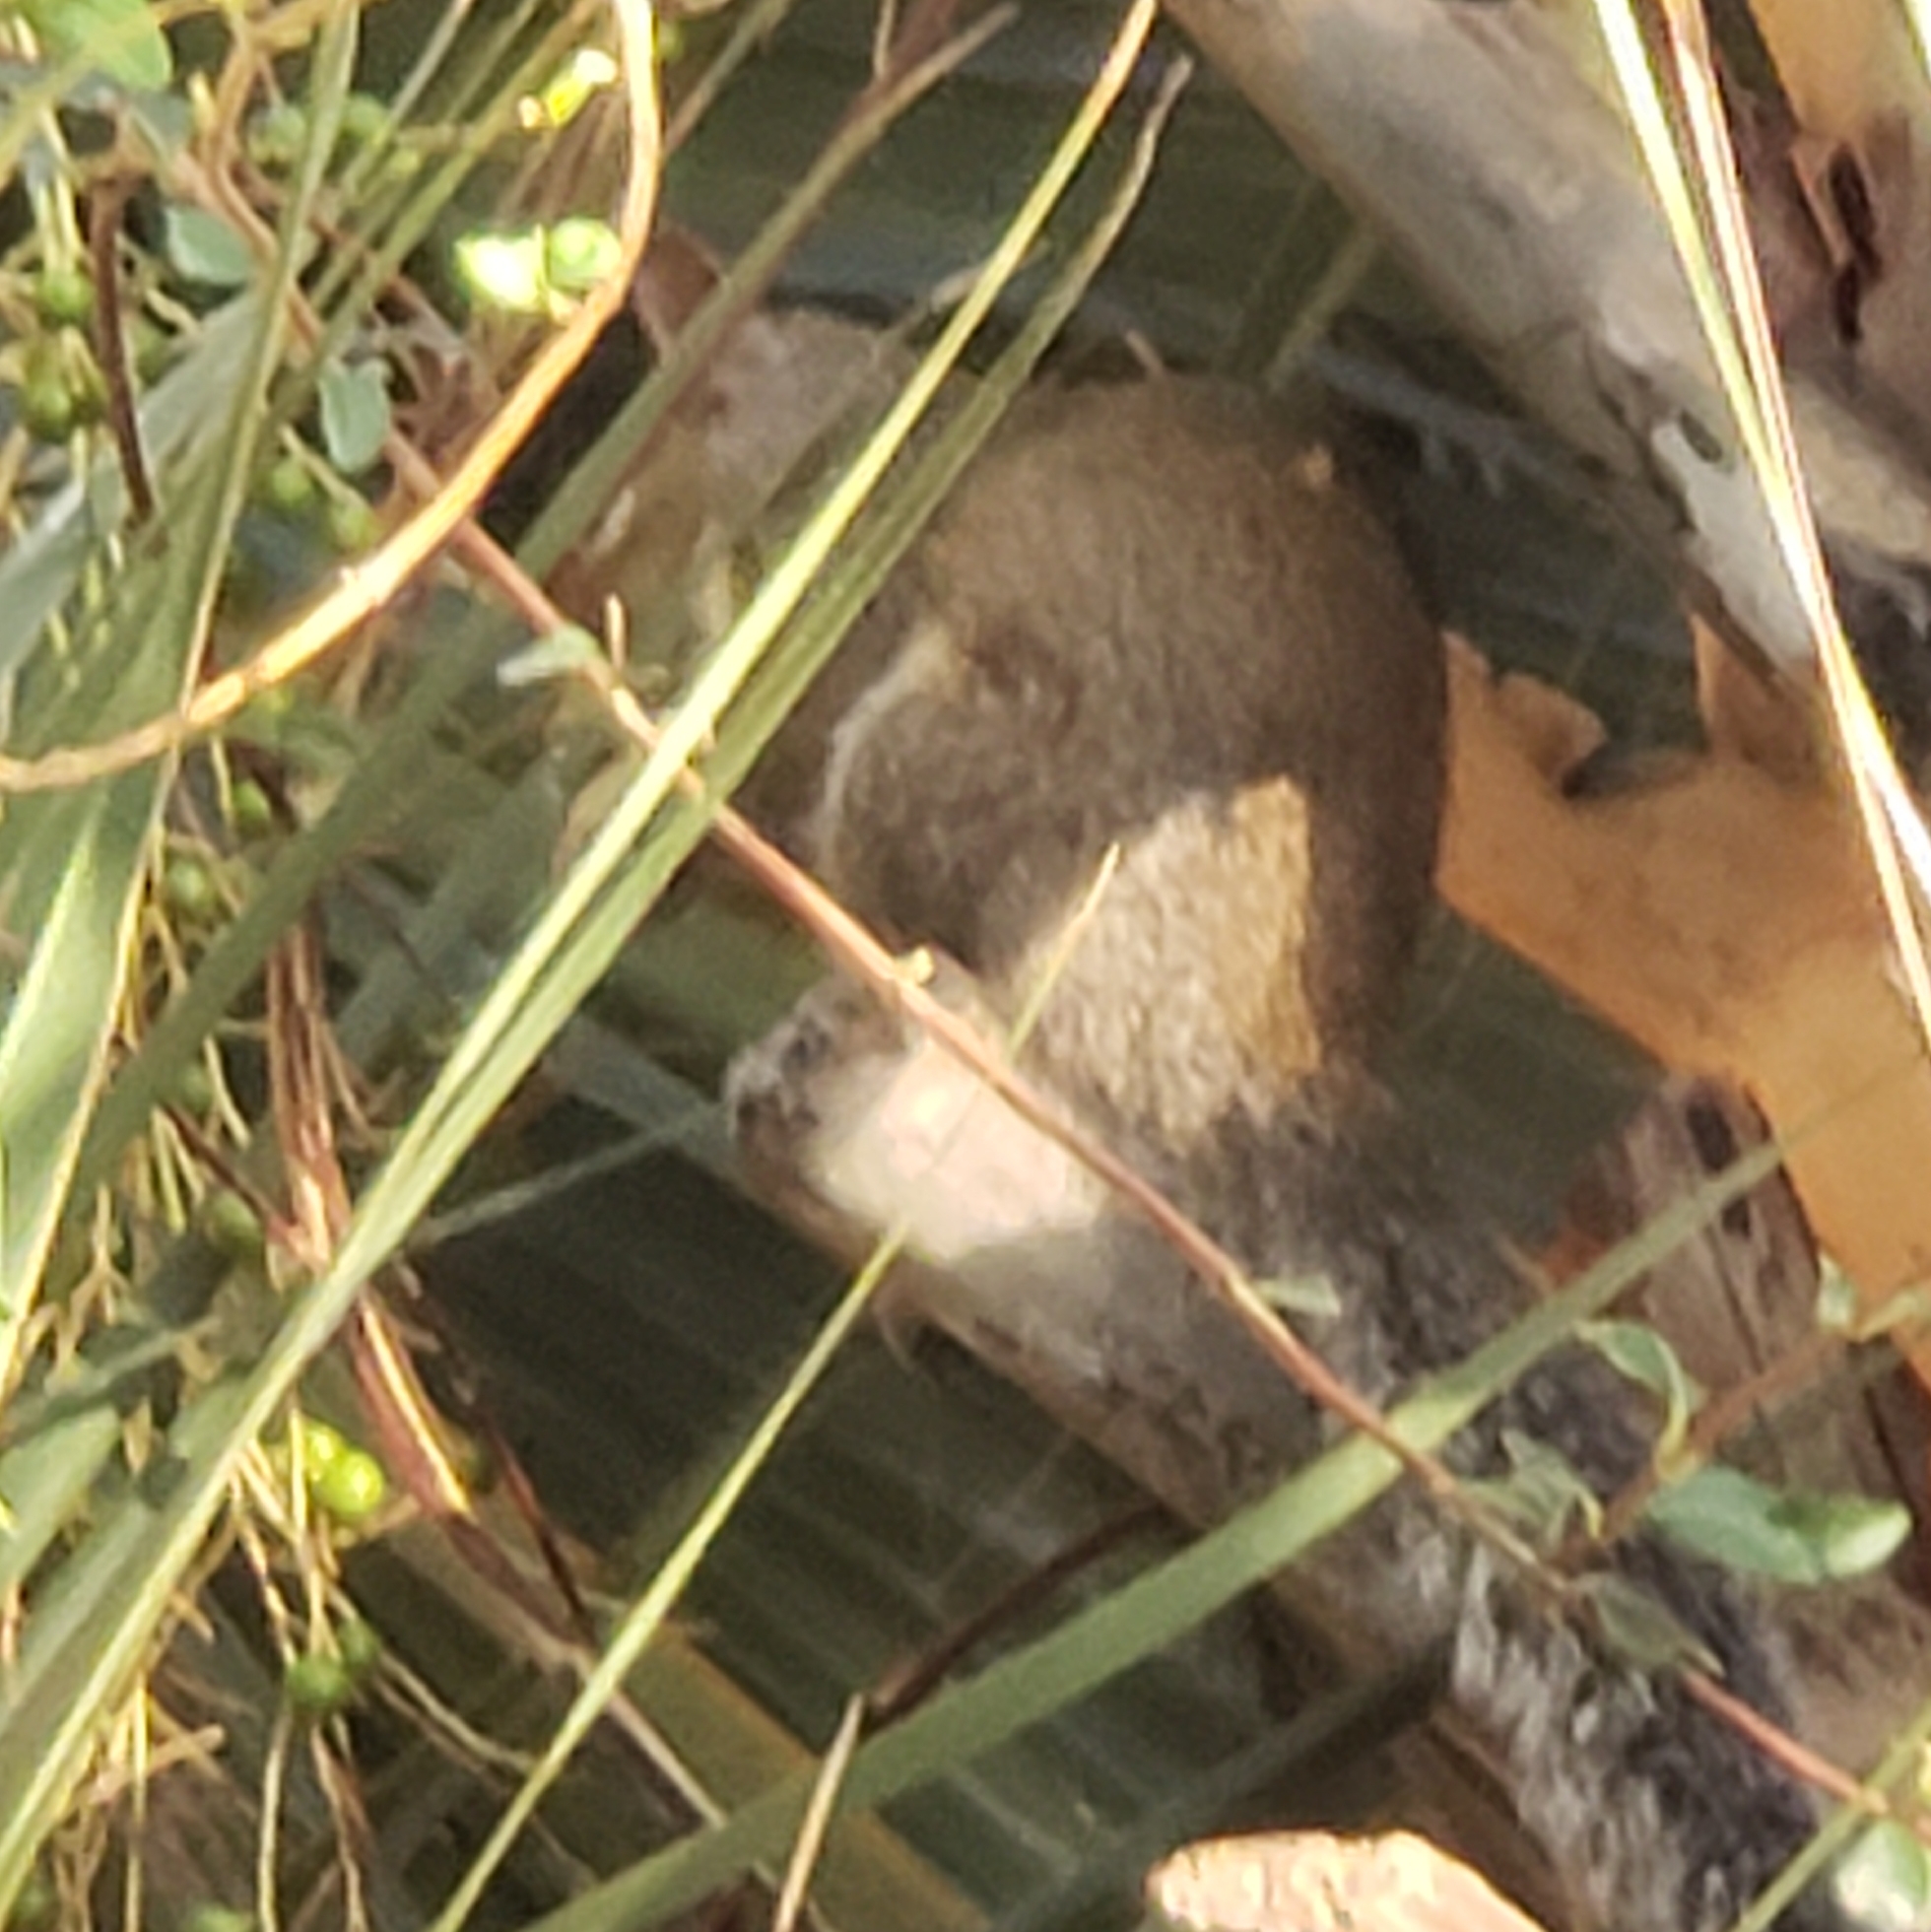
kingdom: Animalia
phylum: Chordata
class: Mammalia
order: Rodentia
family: Sciuridae
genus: Sciurus
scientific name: Sciurus carolinensis
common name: Eastern gray squirrel
